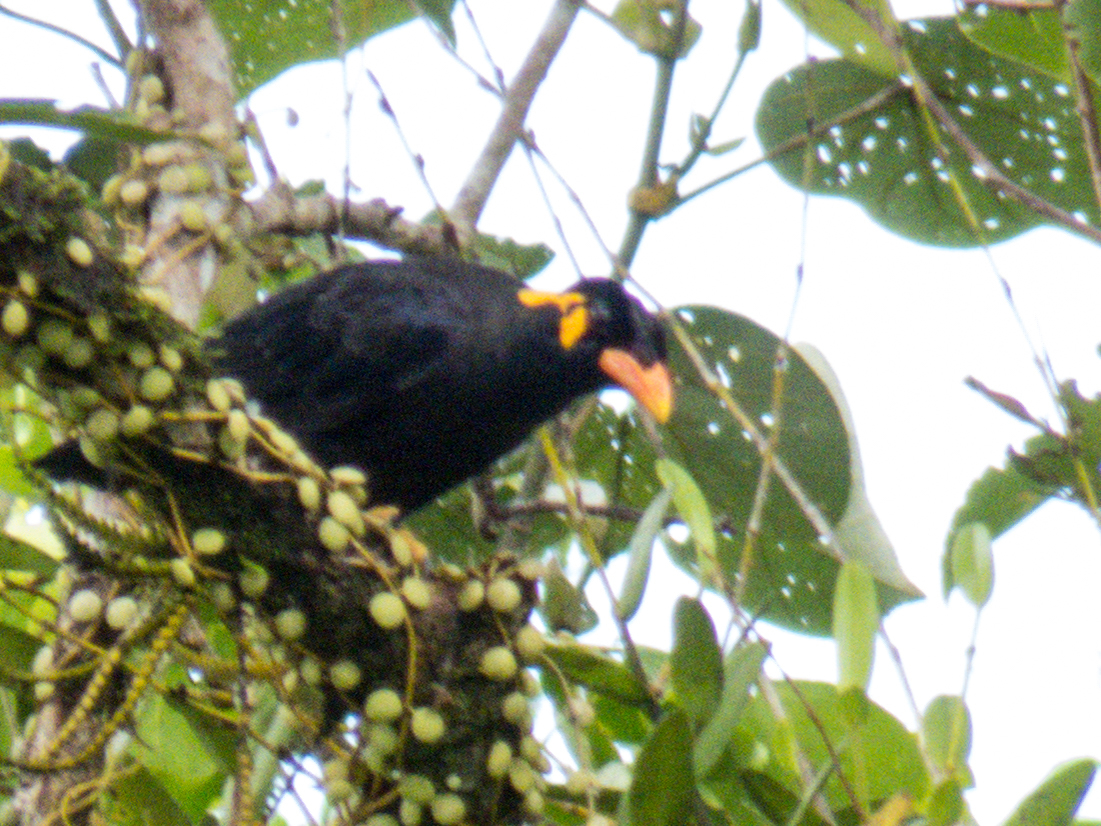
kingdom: Animalia
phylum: Chordata
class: Aves
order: Passeriformes
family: Sturnidae
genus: Gracula
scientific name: Gracula religiosa
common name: Common hill myna
